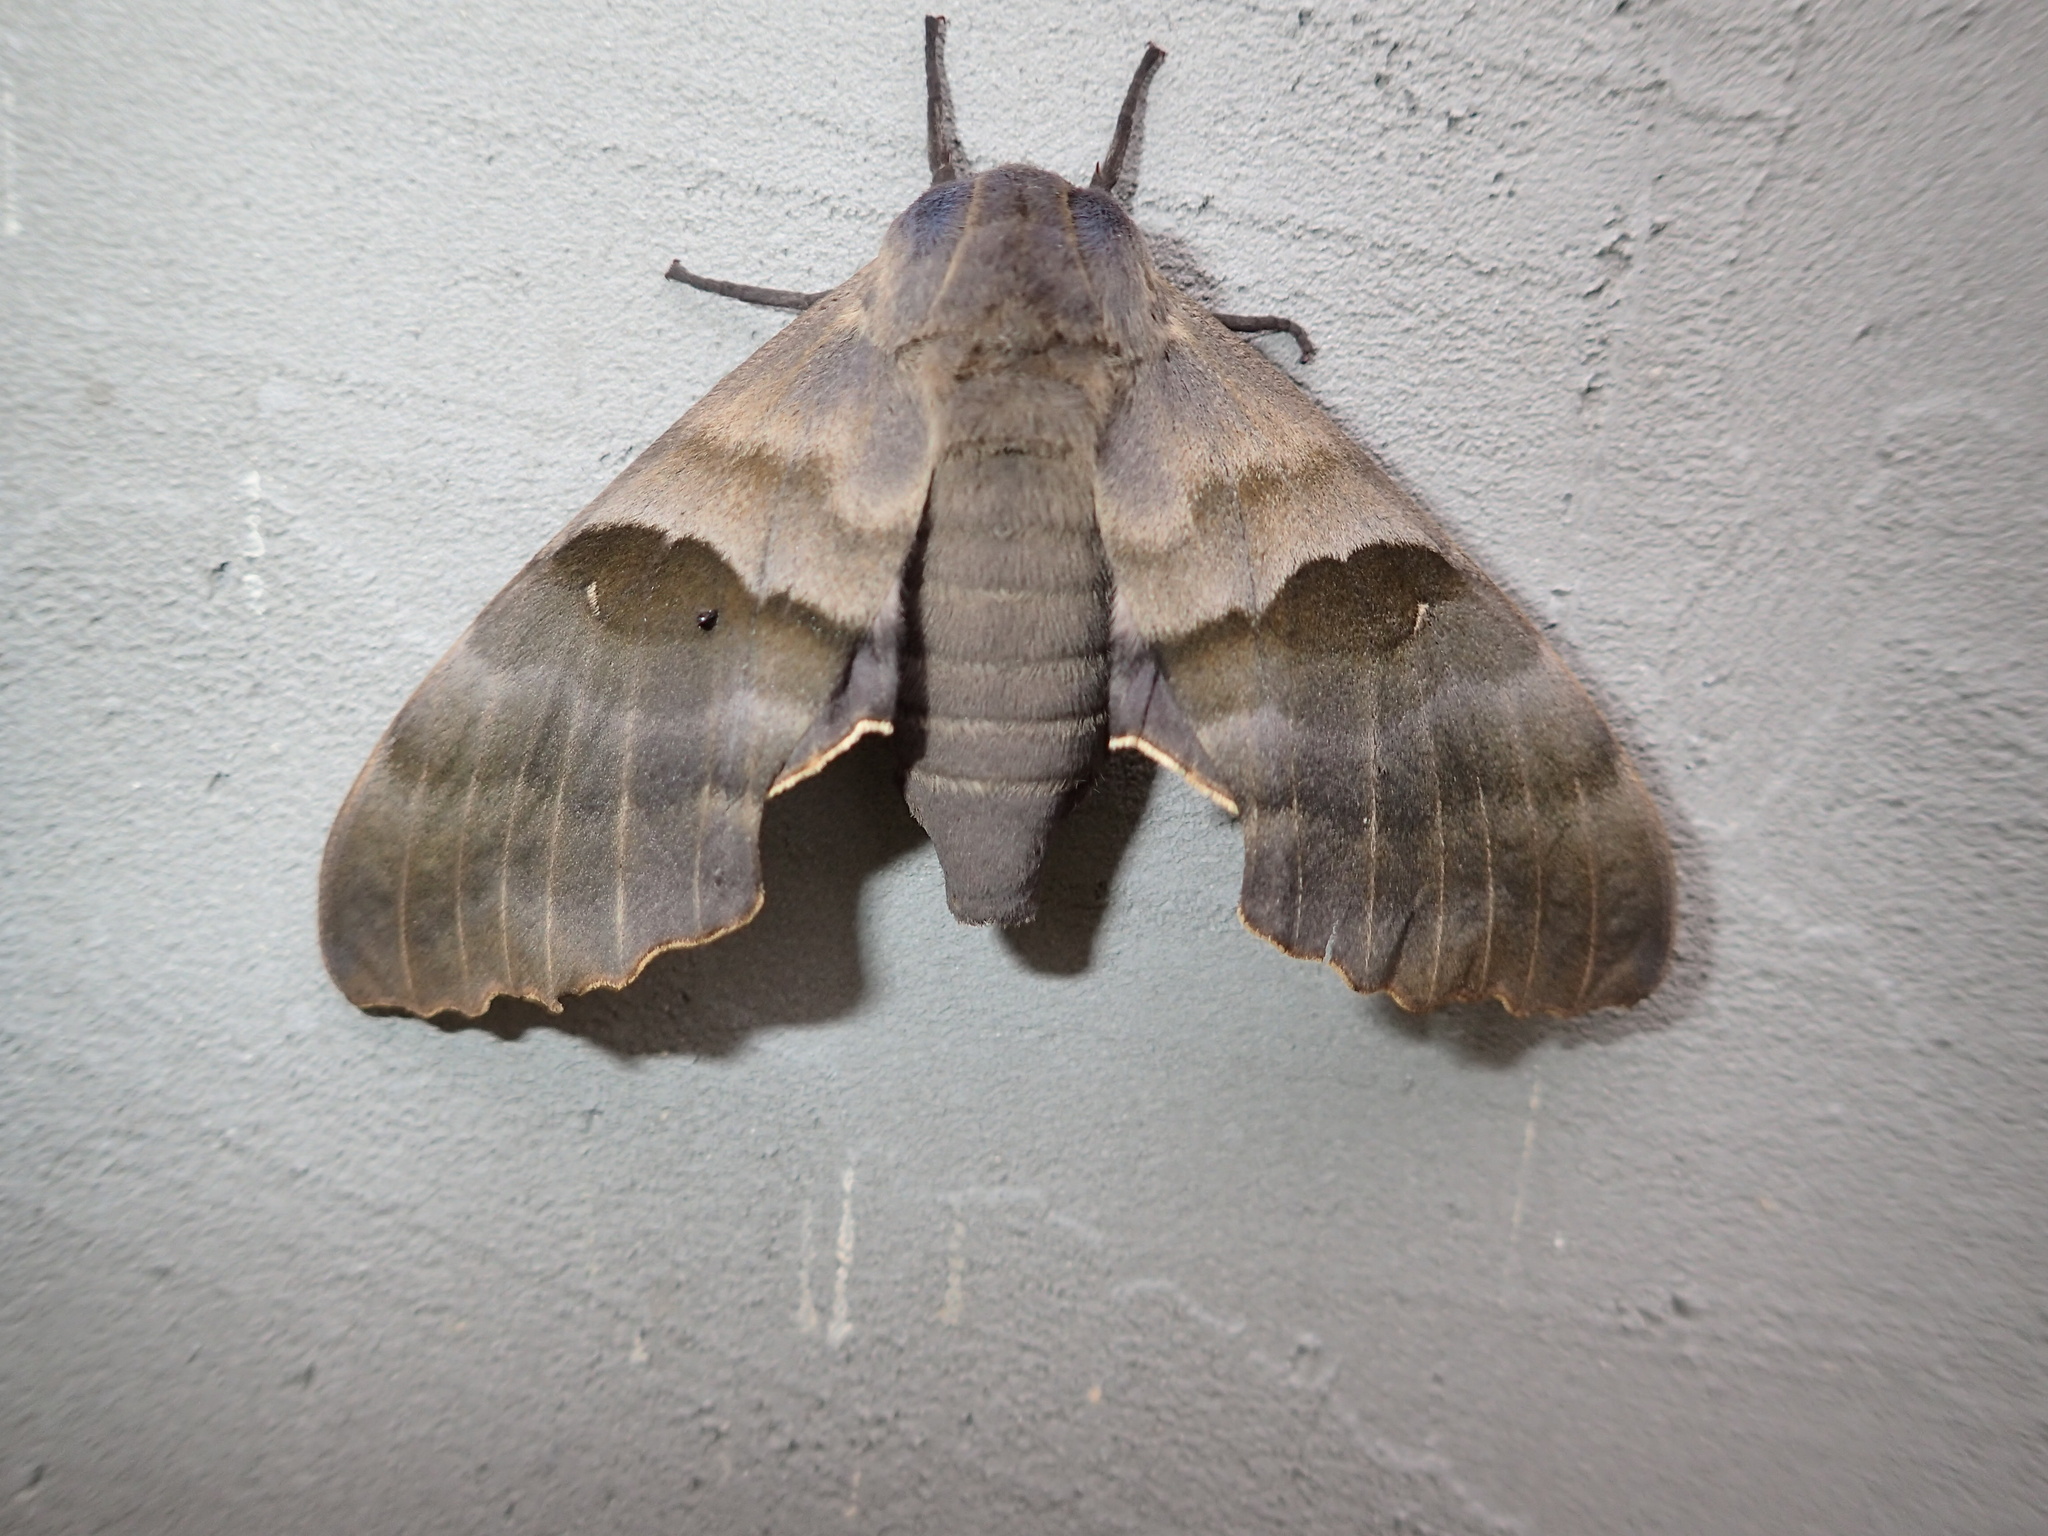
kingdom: Animalia
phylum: Arthropoda
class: Insecta
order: Lepidoptera
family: Sphingidae
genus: Pachysphinx
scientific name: Pachysphinx modesta
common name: Big poplar sphinx
